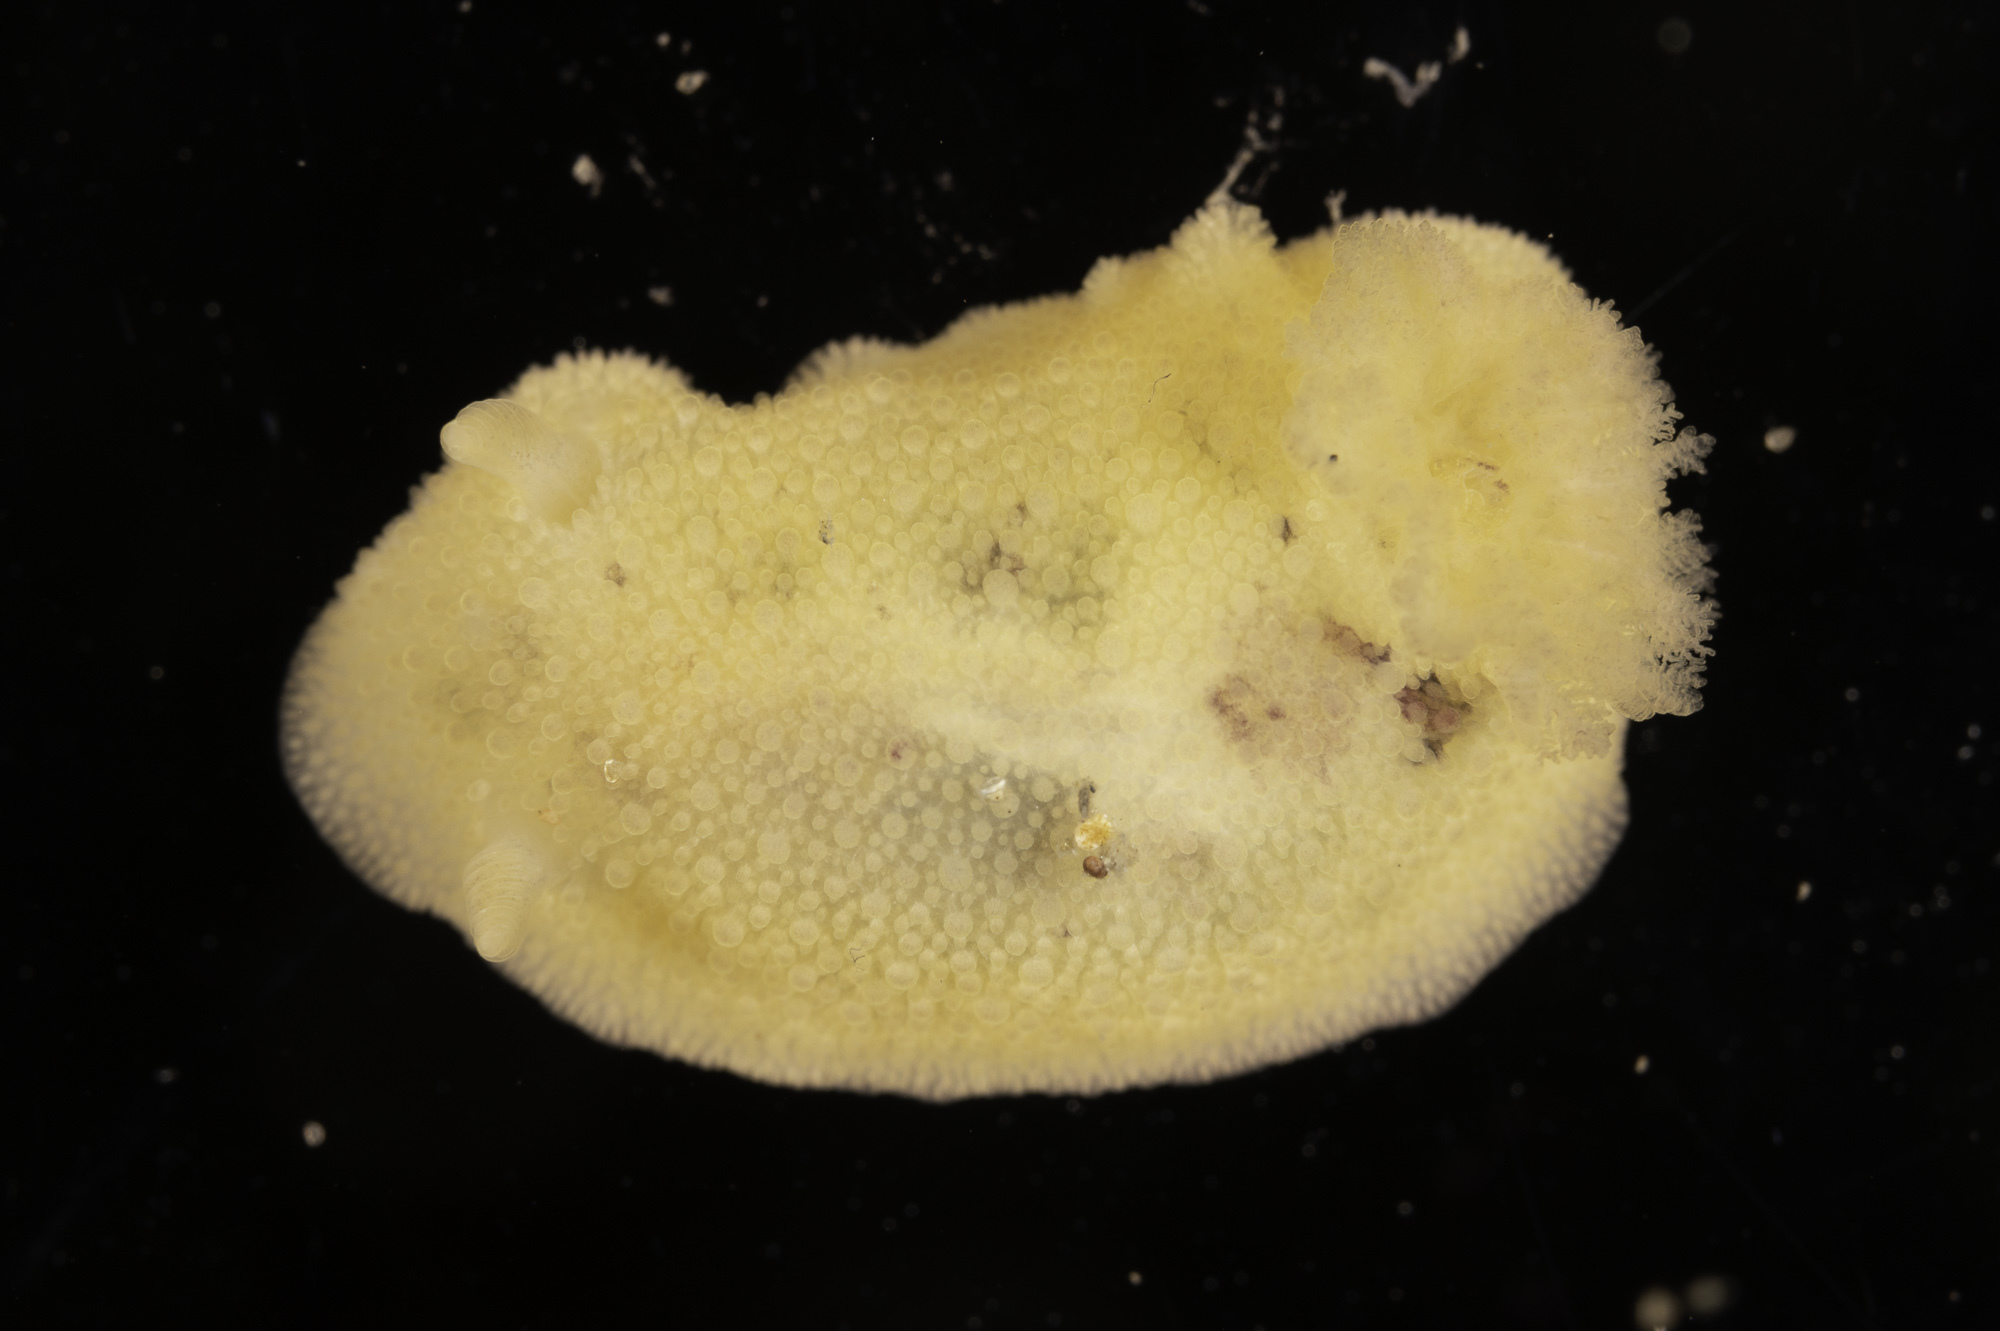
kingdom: Animalia
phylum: Mollusca
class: Gastropoda
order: Nudibranchia
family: Dorididae
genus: Doris
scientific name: Doris pseudoargus
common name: Sea lemon
